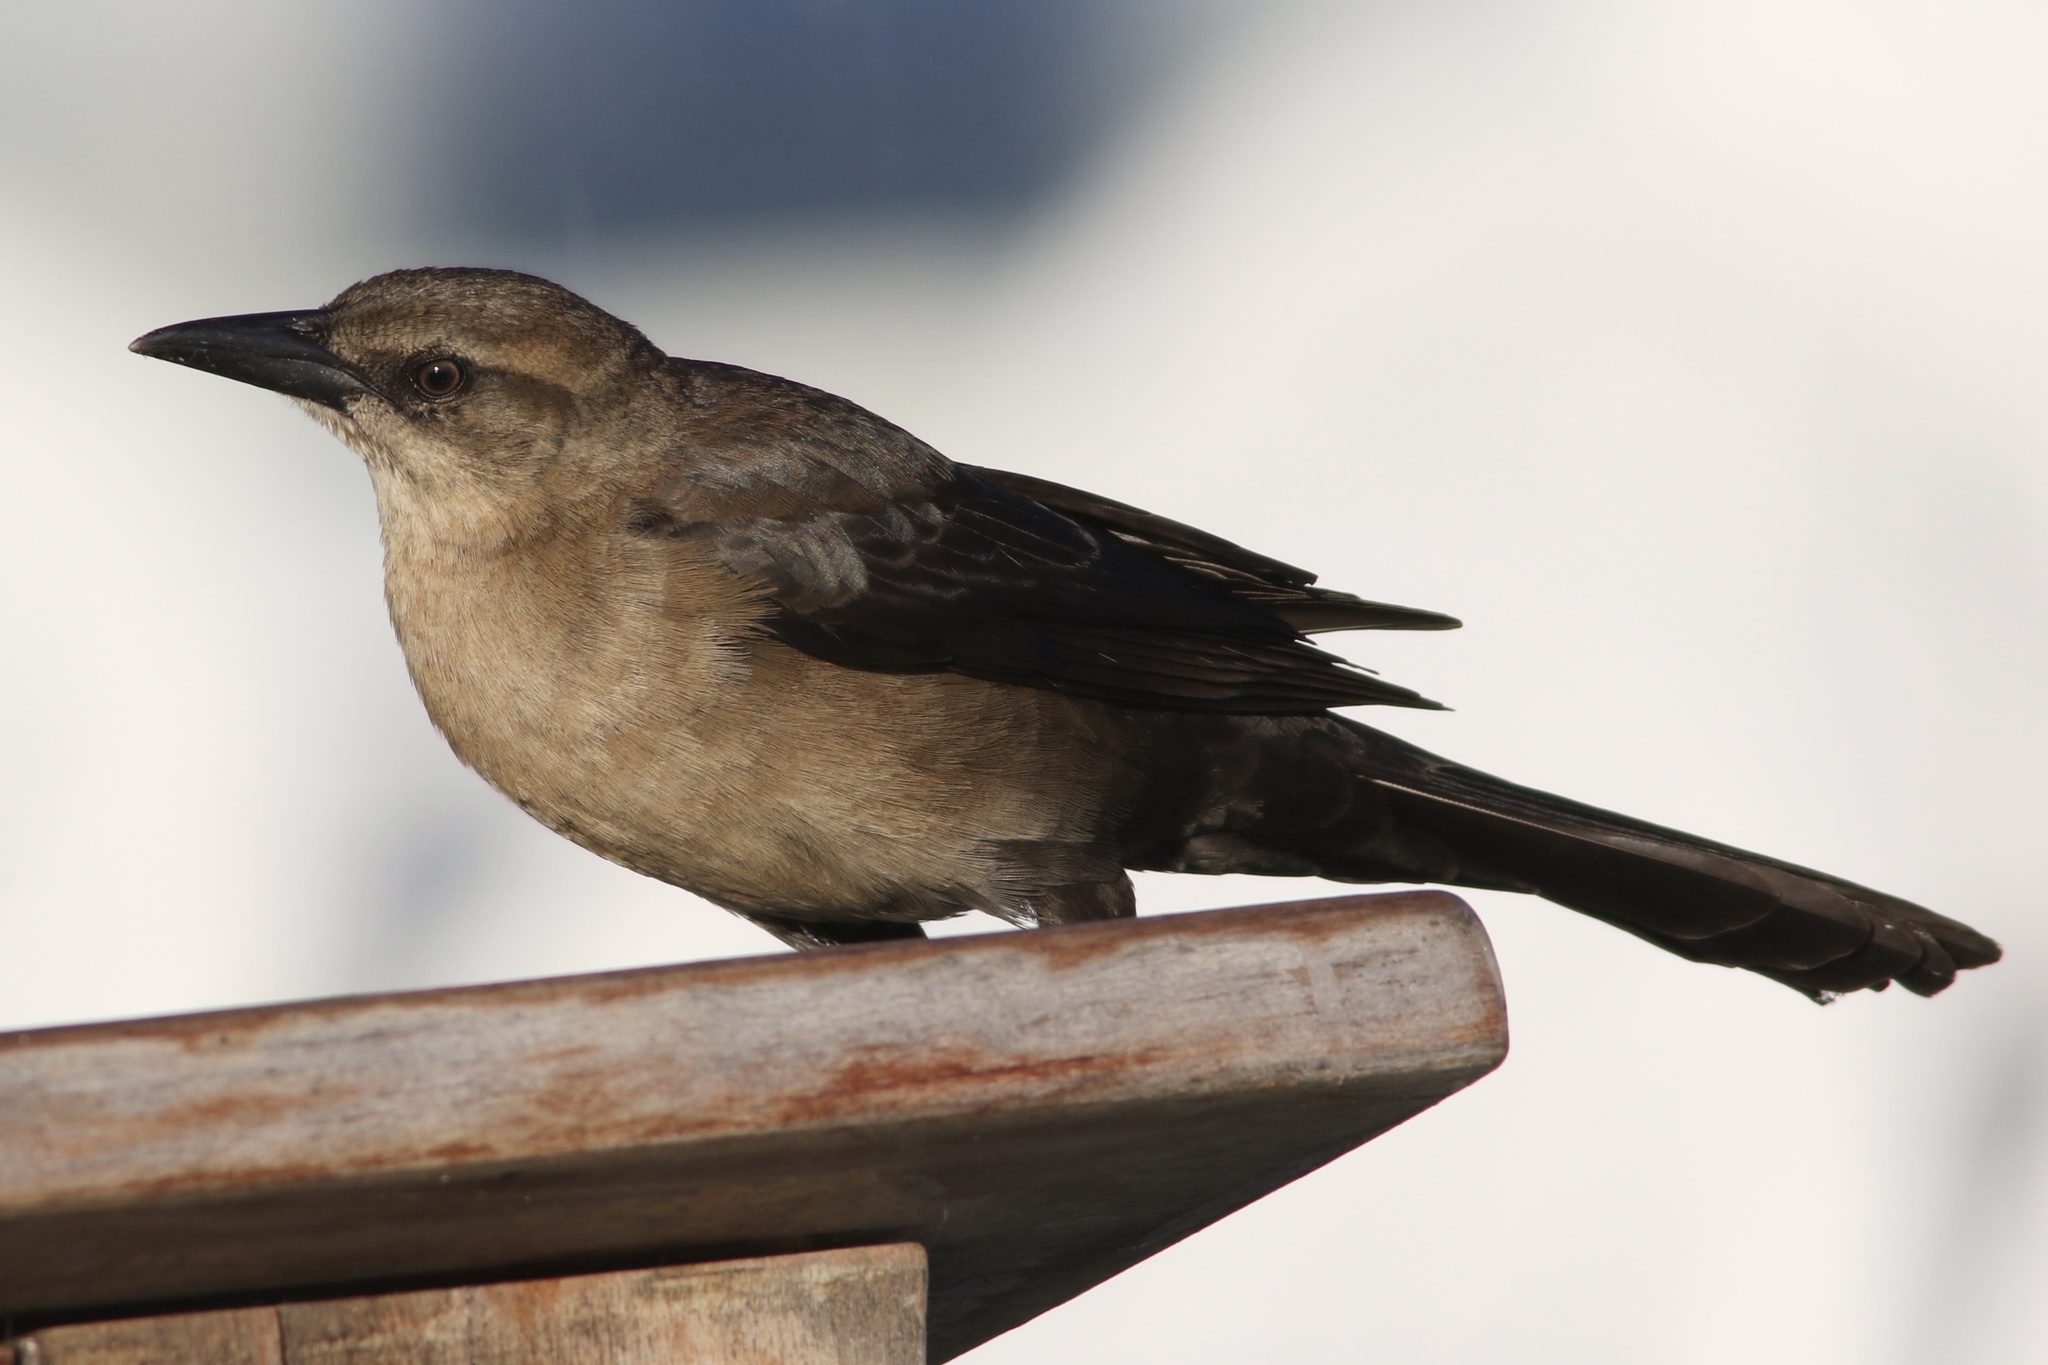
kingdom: Animalia
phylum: Chordata
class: Aves
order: Passeriformes
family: Icteridae
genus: Quiscalus
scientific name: Quiscalus mexicanus
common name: Great-tailed grackle
